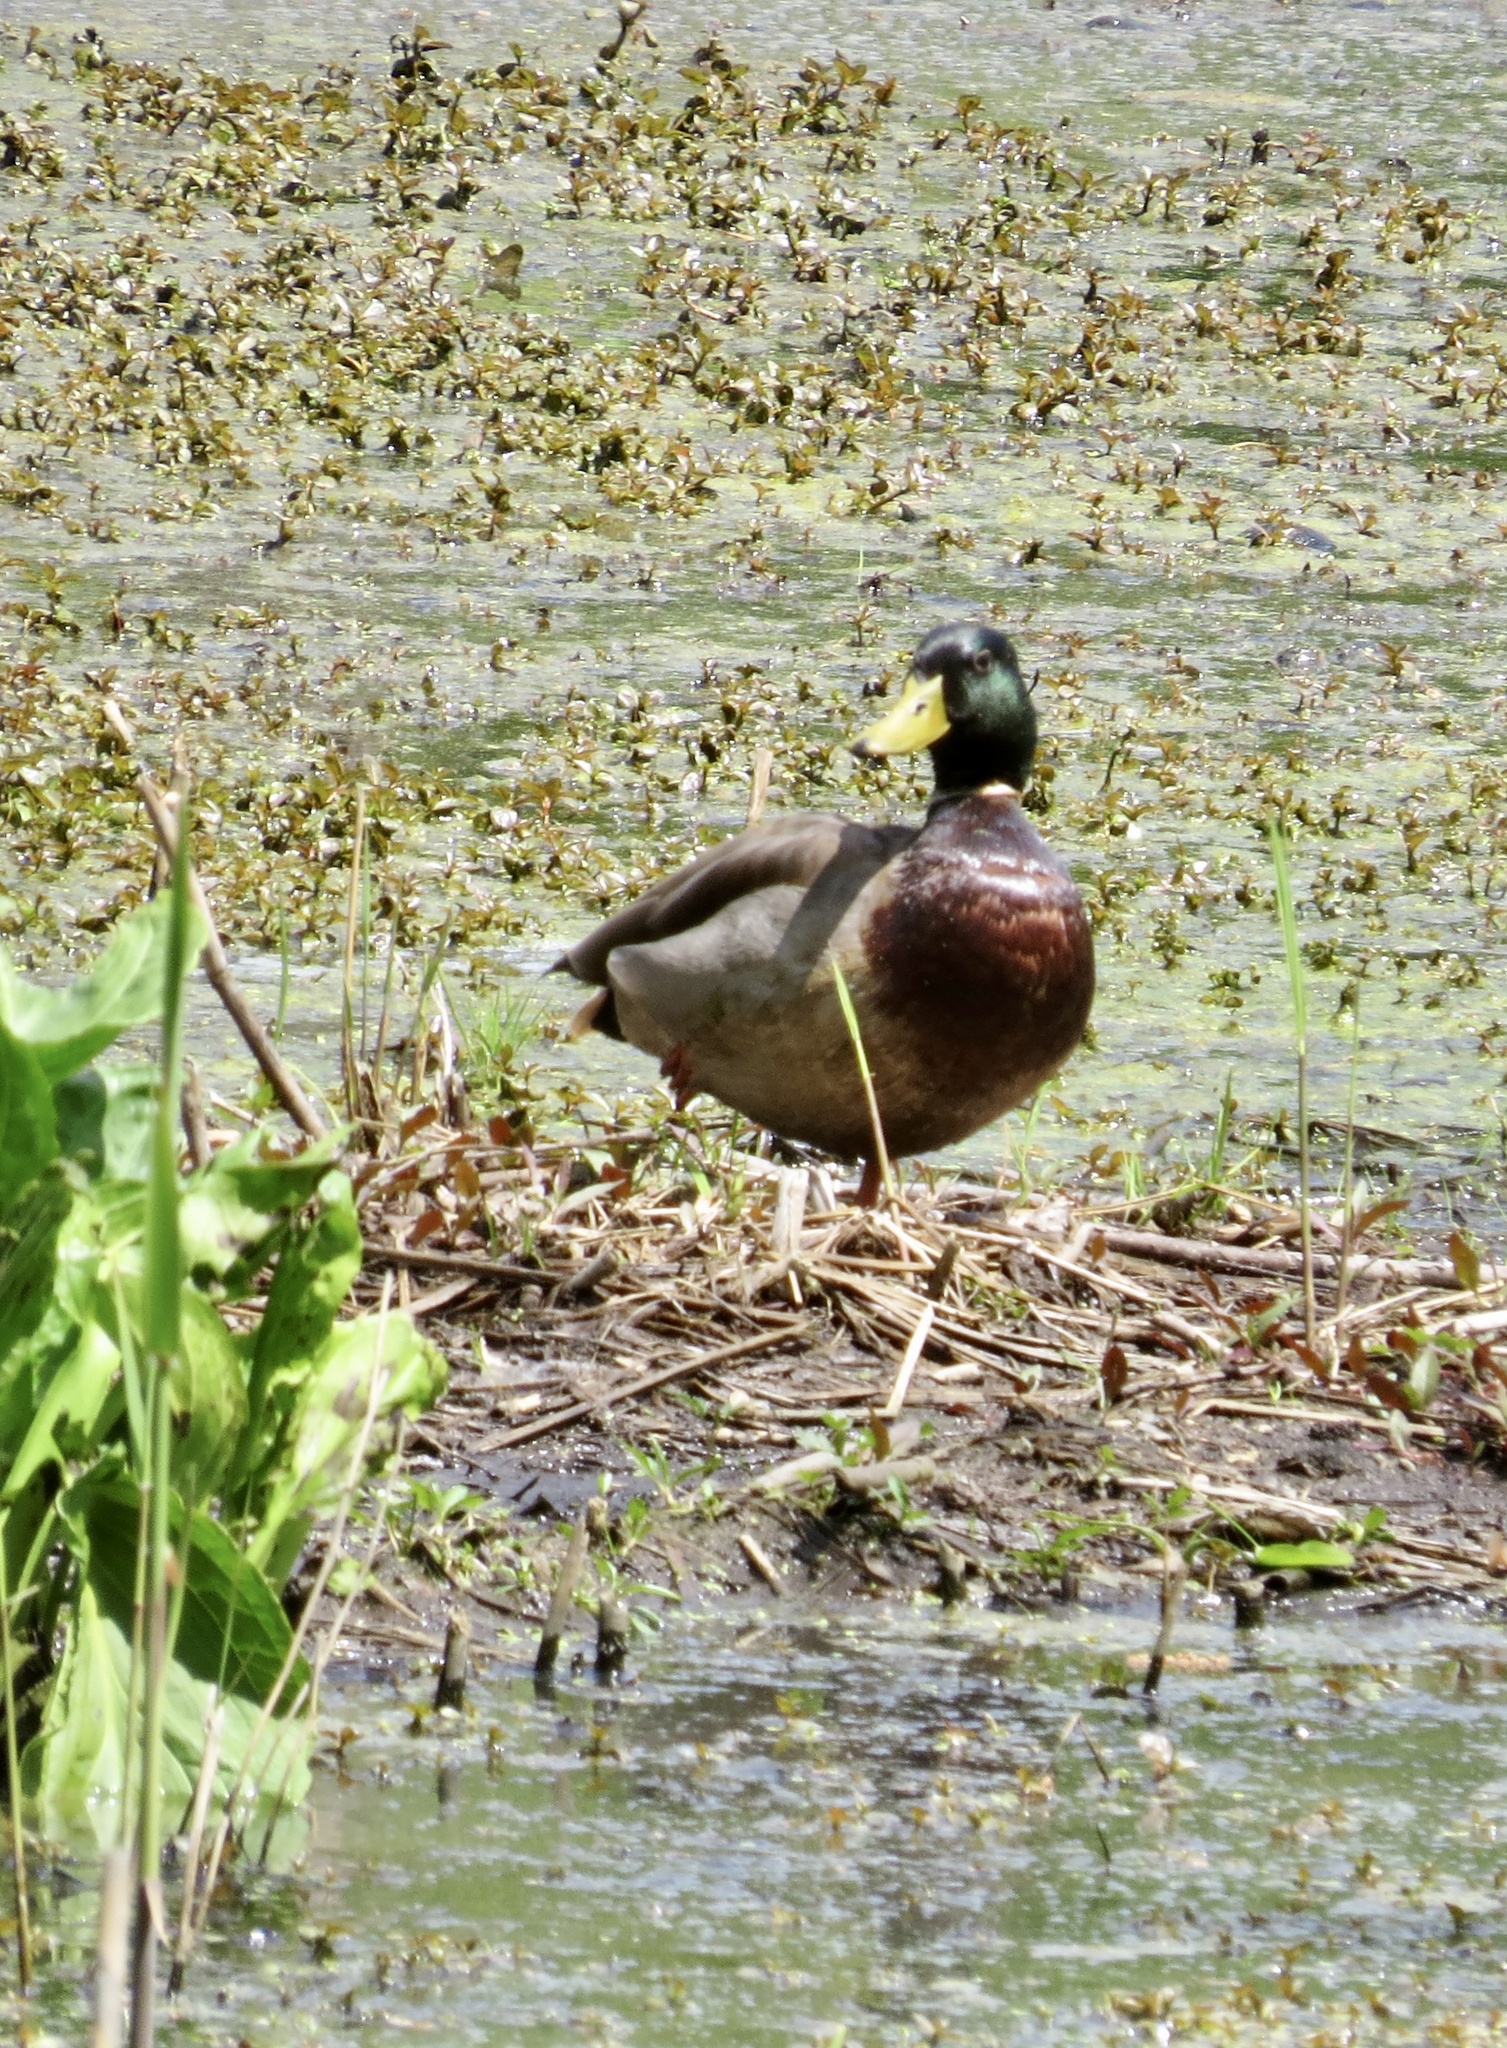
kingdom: Animalia
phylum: Chordata
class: Aves
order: Anseriformes
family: Anatidae
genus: Anas
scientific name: Anas platyrhynchos
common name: Mallard
